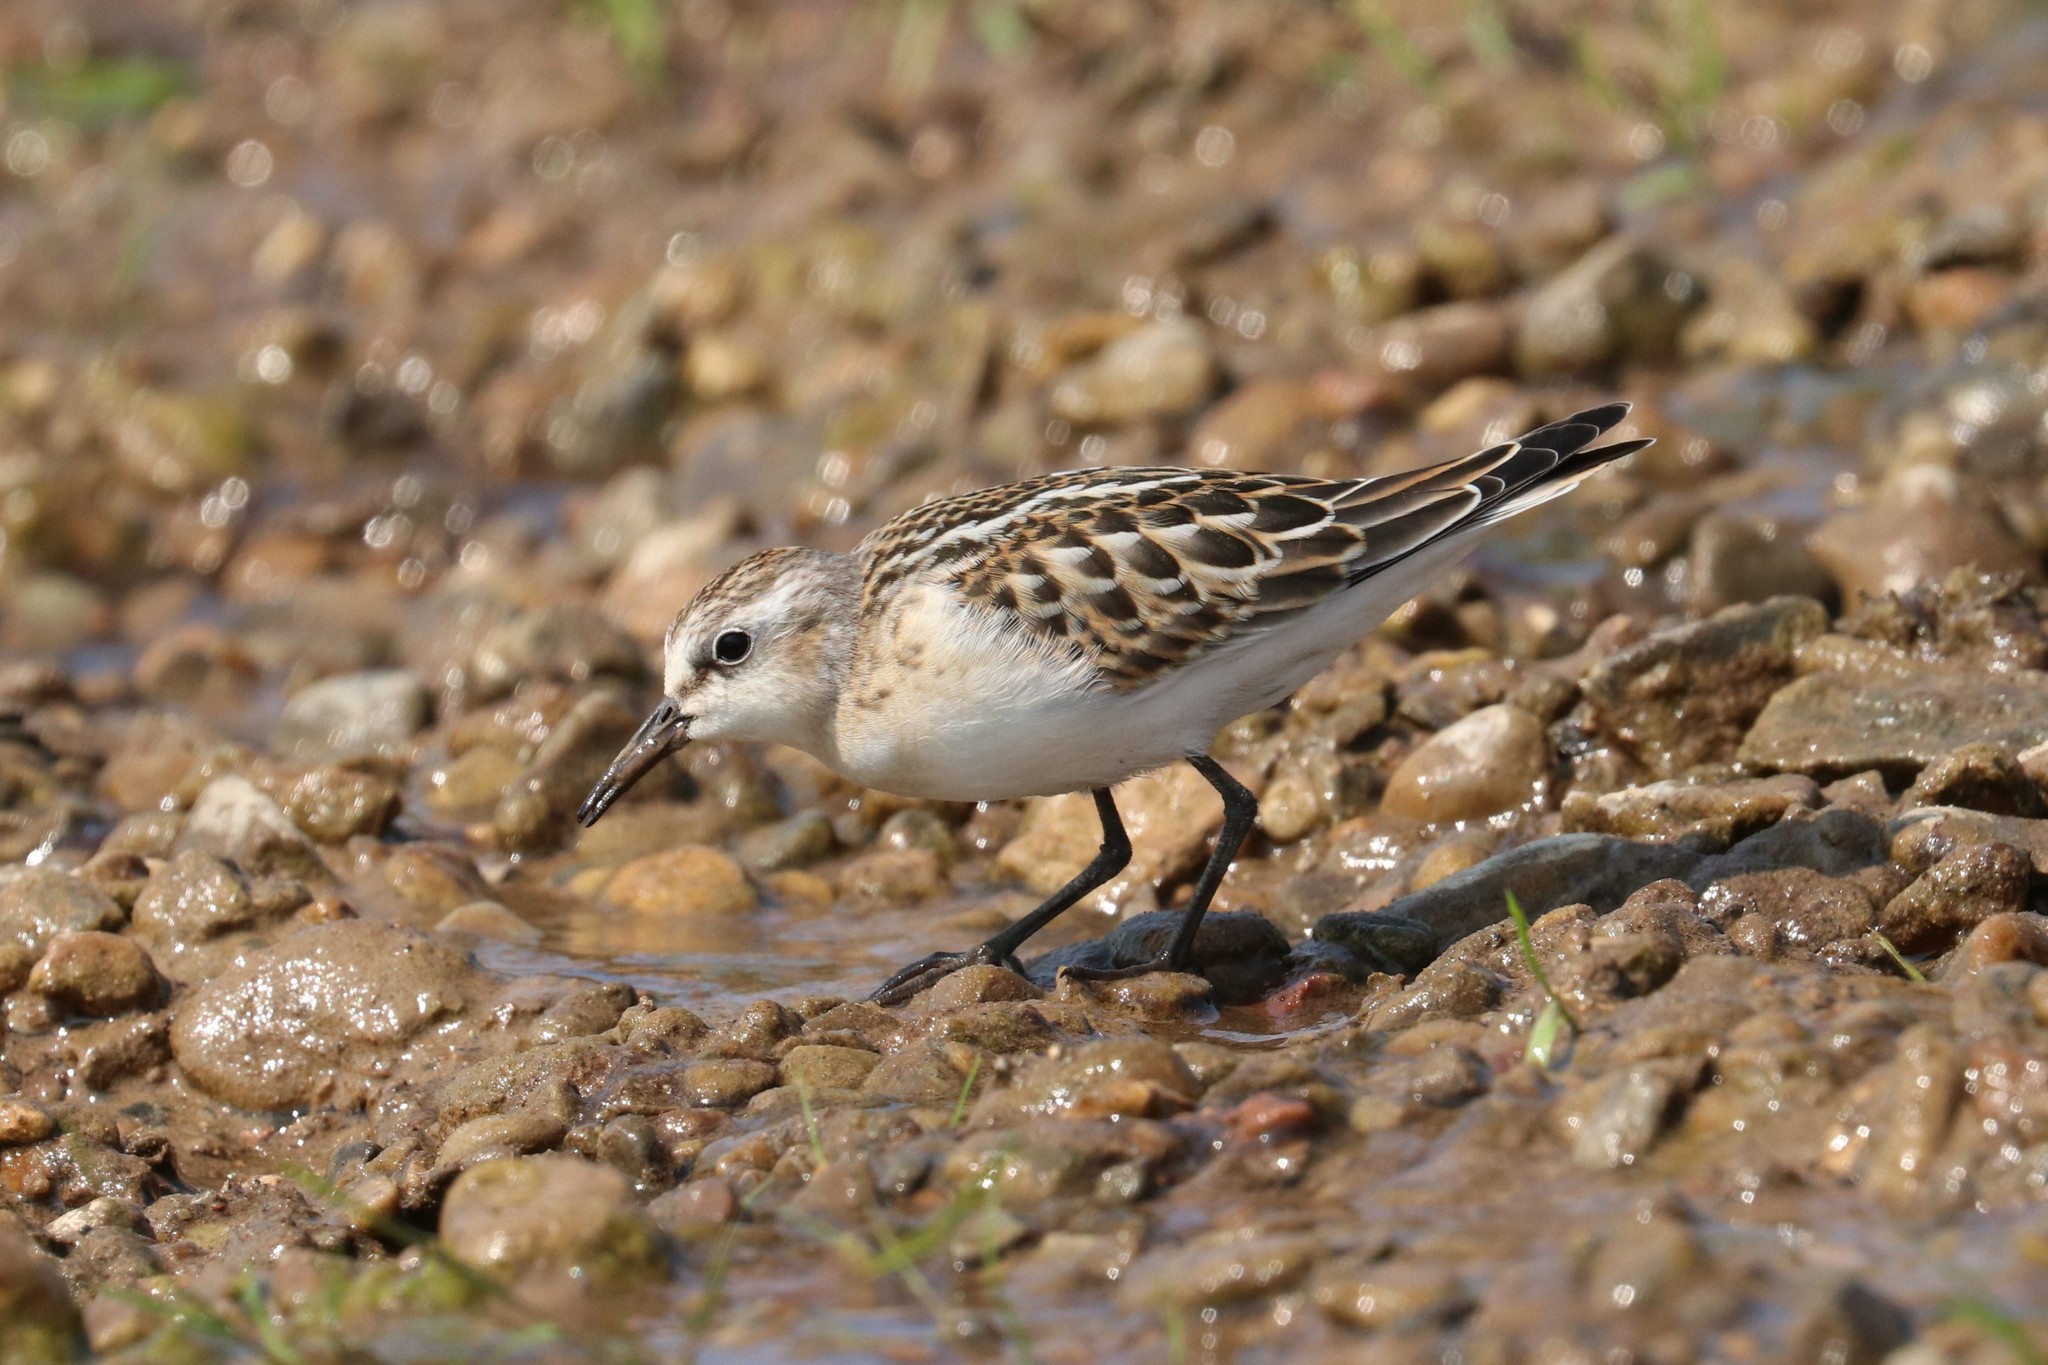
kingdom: Animalia
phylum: Chordata
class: Aves
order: Charadriiformes
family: Scolopacidae
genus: Calidris
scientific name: Calidris minuta
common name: Little stint
